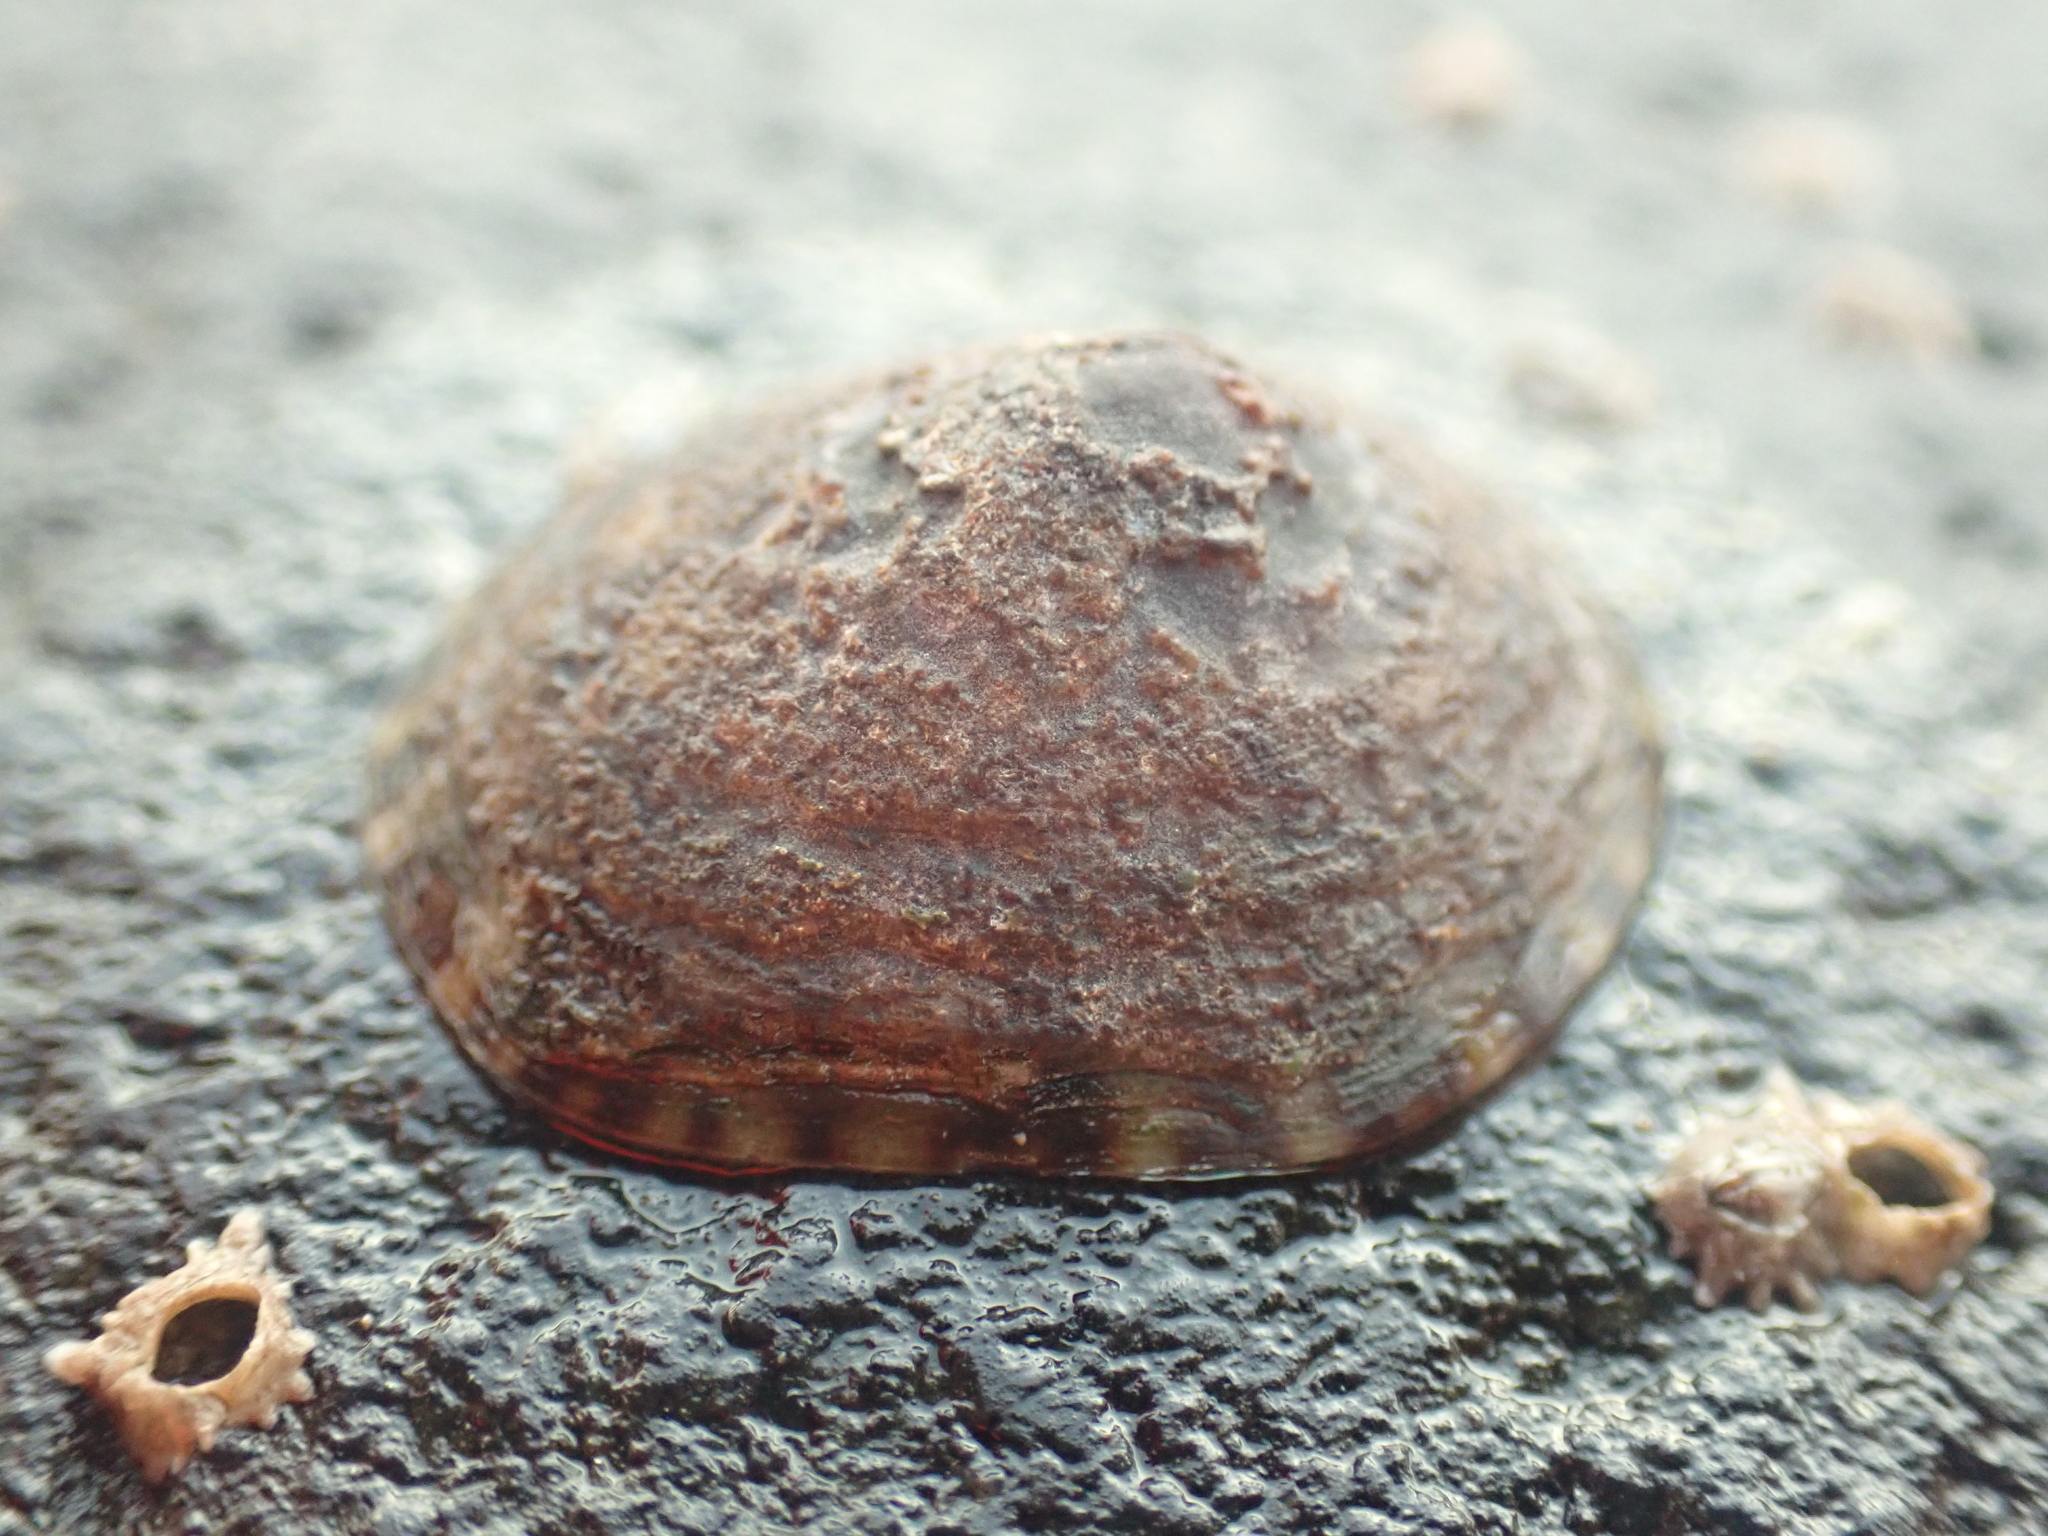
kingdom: Animalia
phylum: Mollusca
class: Gastropoda
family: Lottiidae
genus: Testudinalia
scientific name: Testudinalia testudinalis
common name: Common tortoiseshell limpet
